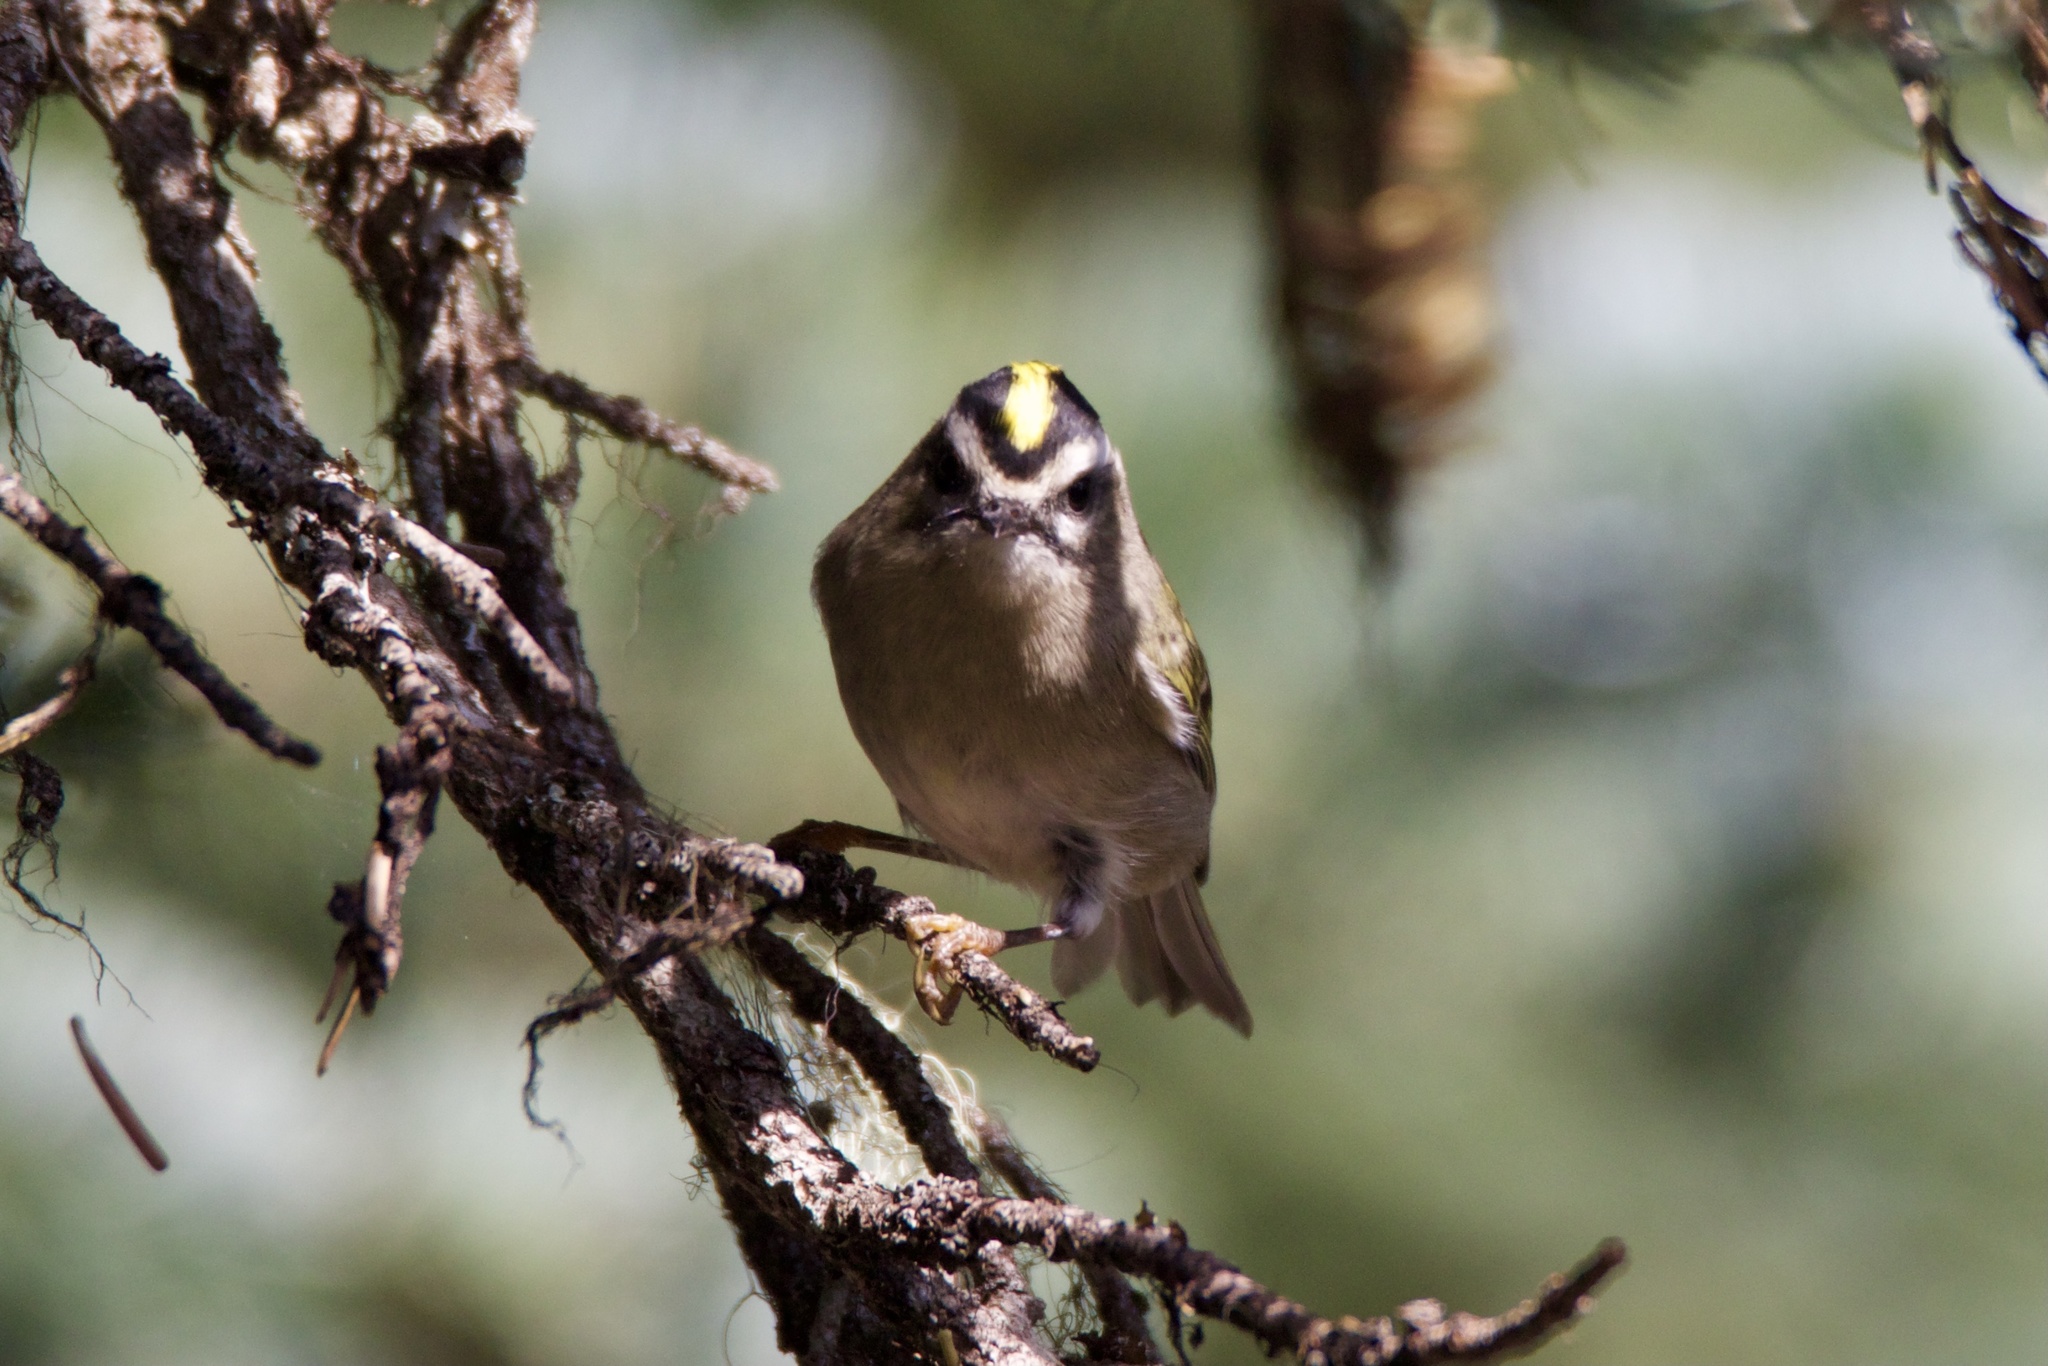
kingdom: Animalia
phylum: Chordata
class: Aves
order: Passeriformes
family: Regulidae
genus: Regulus
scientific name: Regulus satrapa
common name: Golden-crowned kinglet
